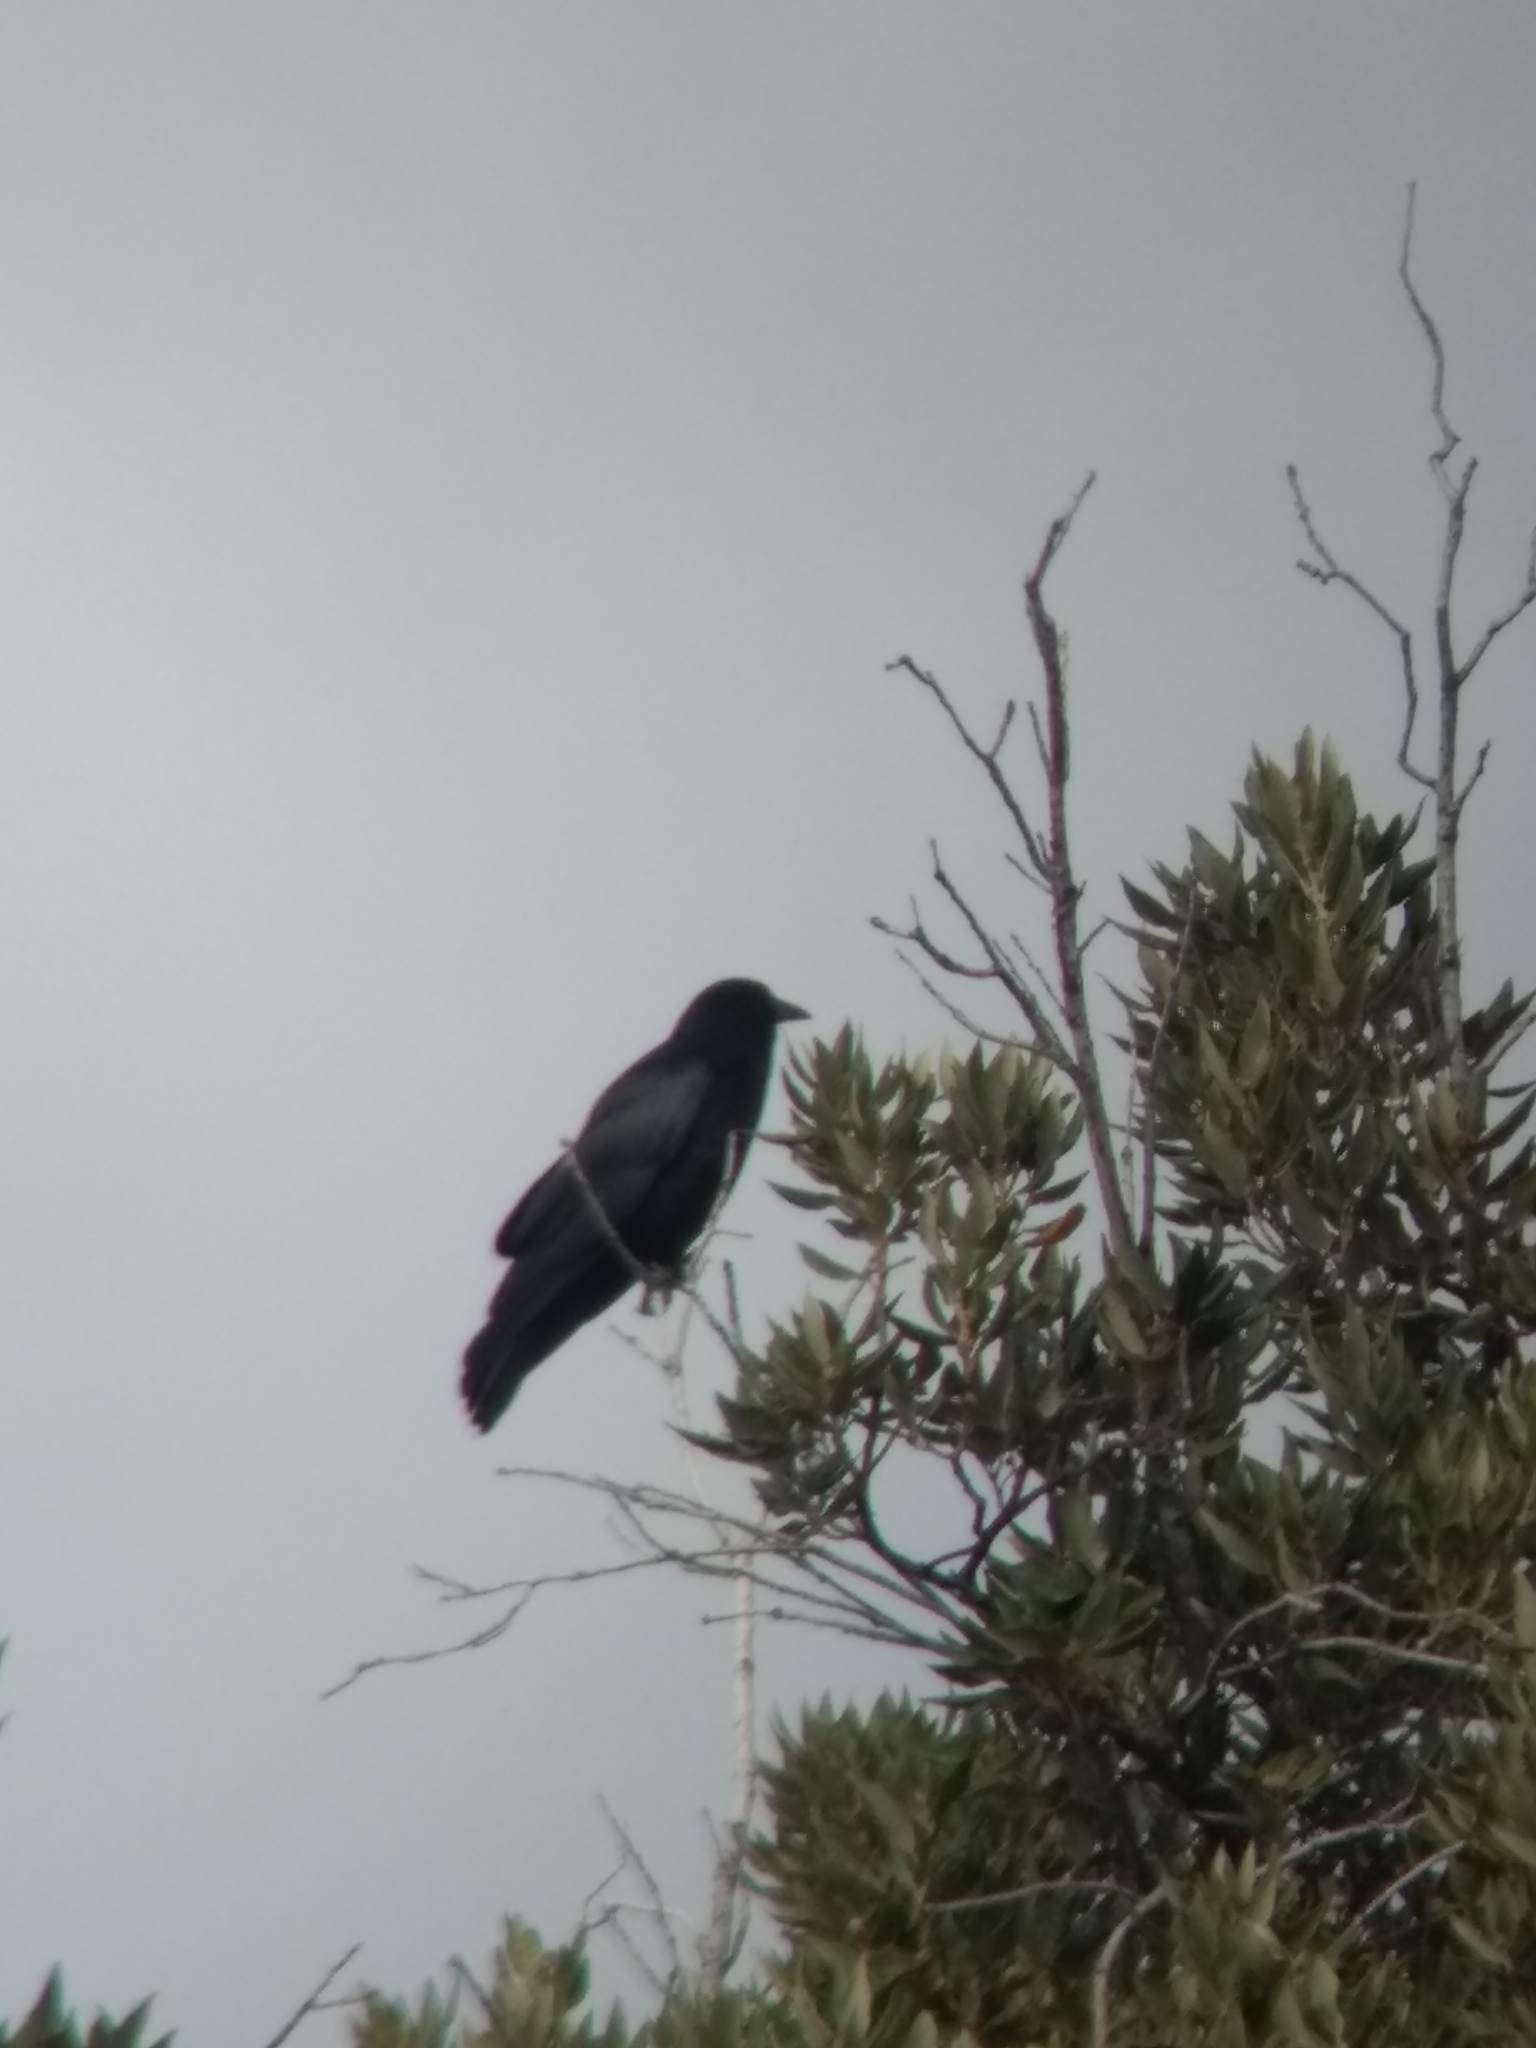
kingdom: Animalia
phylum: Chordata
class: Aves
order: Passeriformes
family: Corvidae
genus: Corvus
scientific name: Corvus brachyrhynchos
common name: American crow
